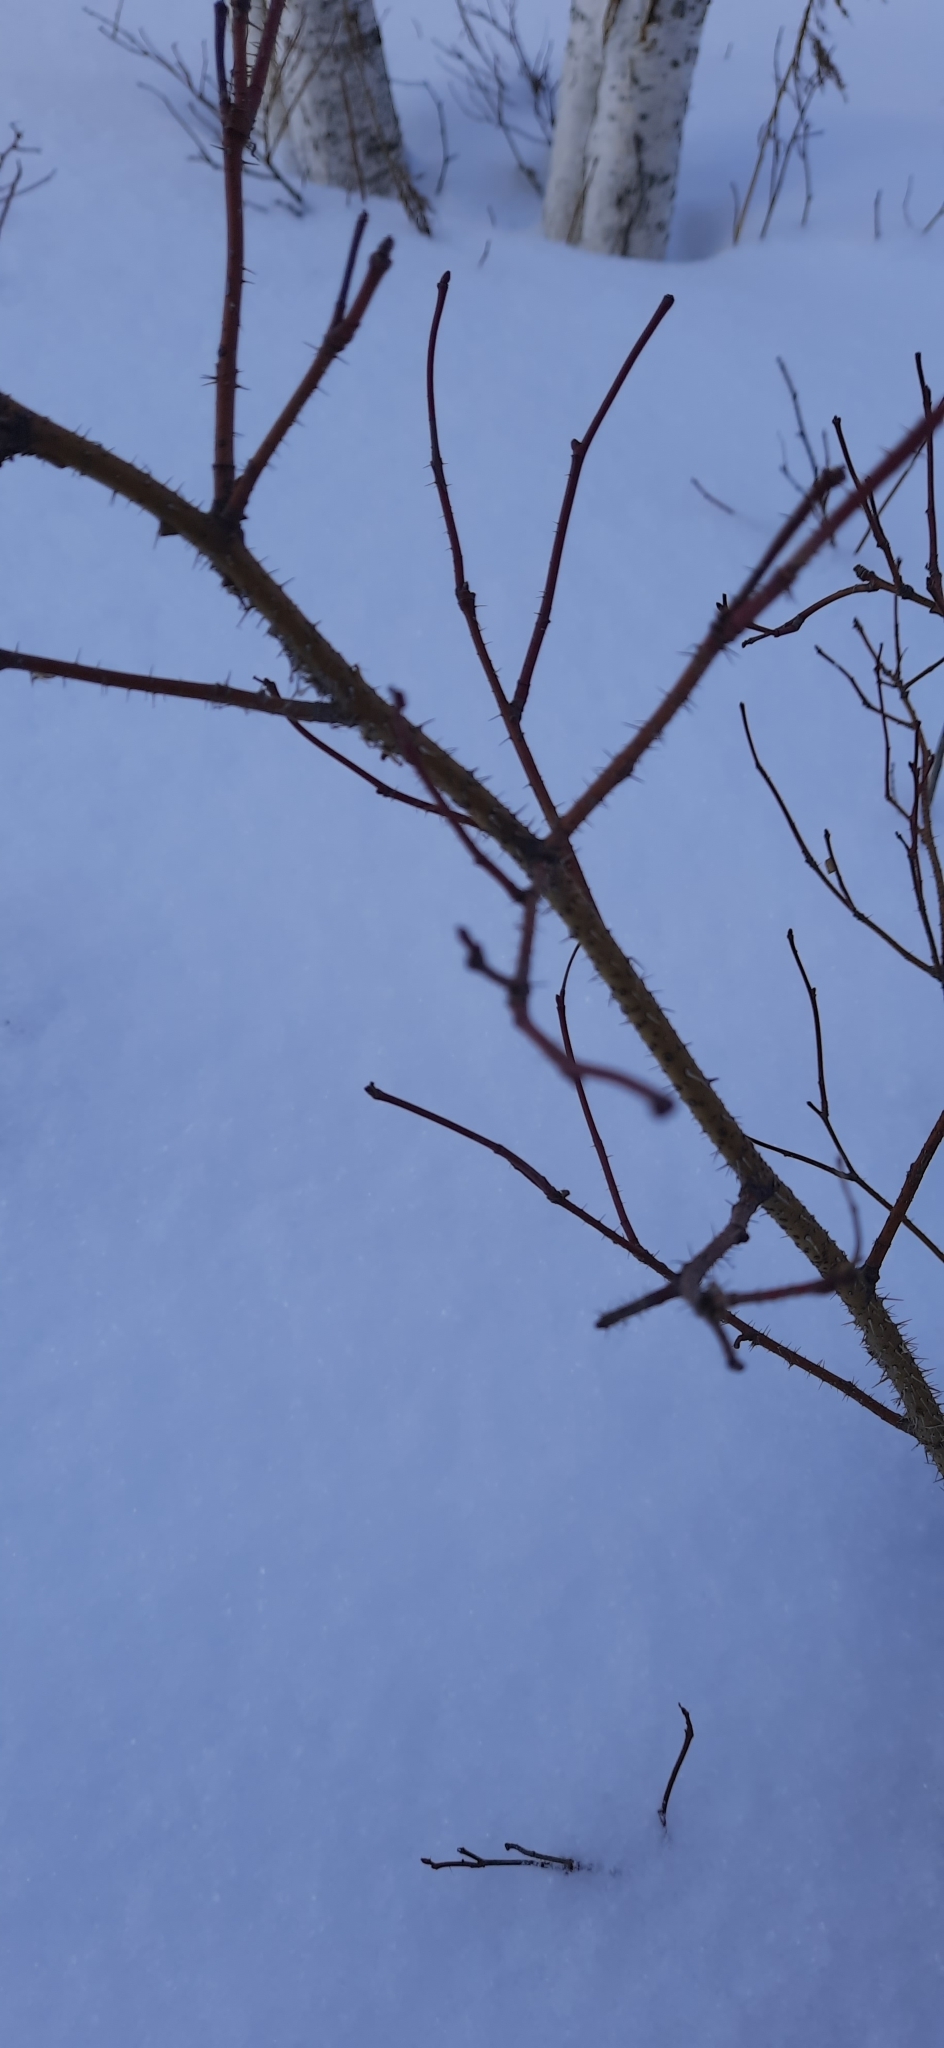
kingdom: Plantae
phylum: Tracheophyta
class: Magnoliopsida
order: Rosales
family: Rosaceae
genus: Rosa
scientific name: Rosa acicularis
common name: Prickly rose
